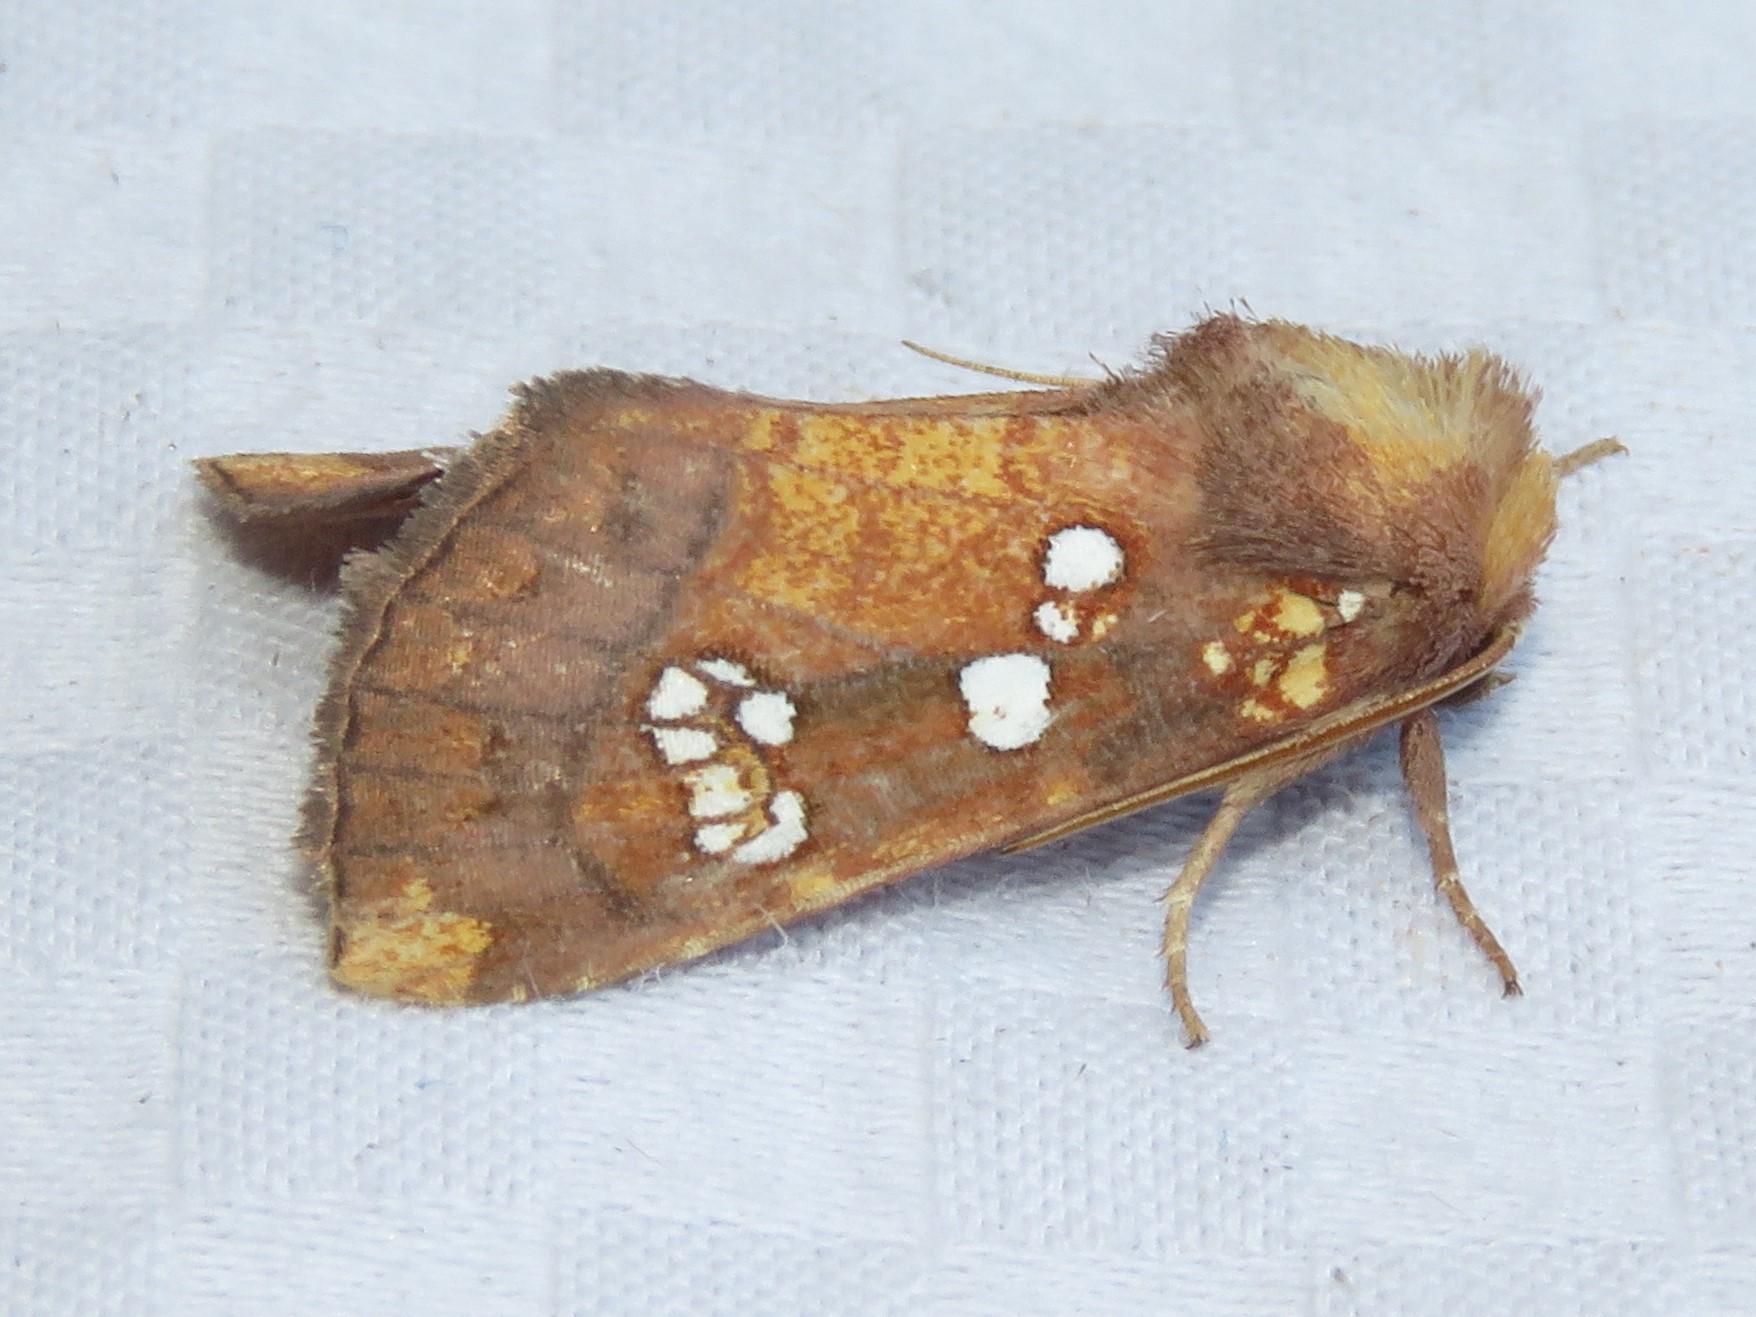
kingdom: Animalia
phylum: Arthropoda
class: Insecta
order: Lepidoptera
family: Noctuidae
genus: Papaipema
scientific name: Papaipema baptisiae
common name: Wild indigo borer moth
